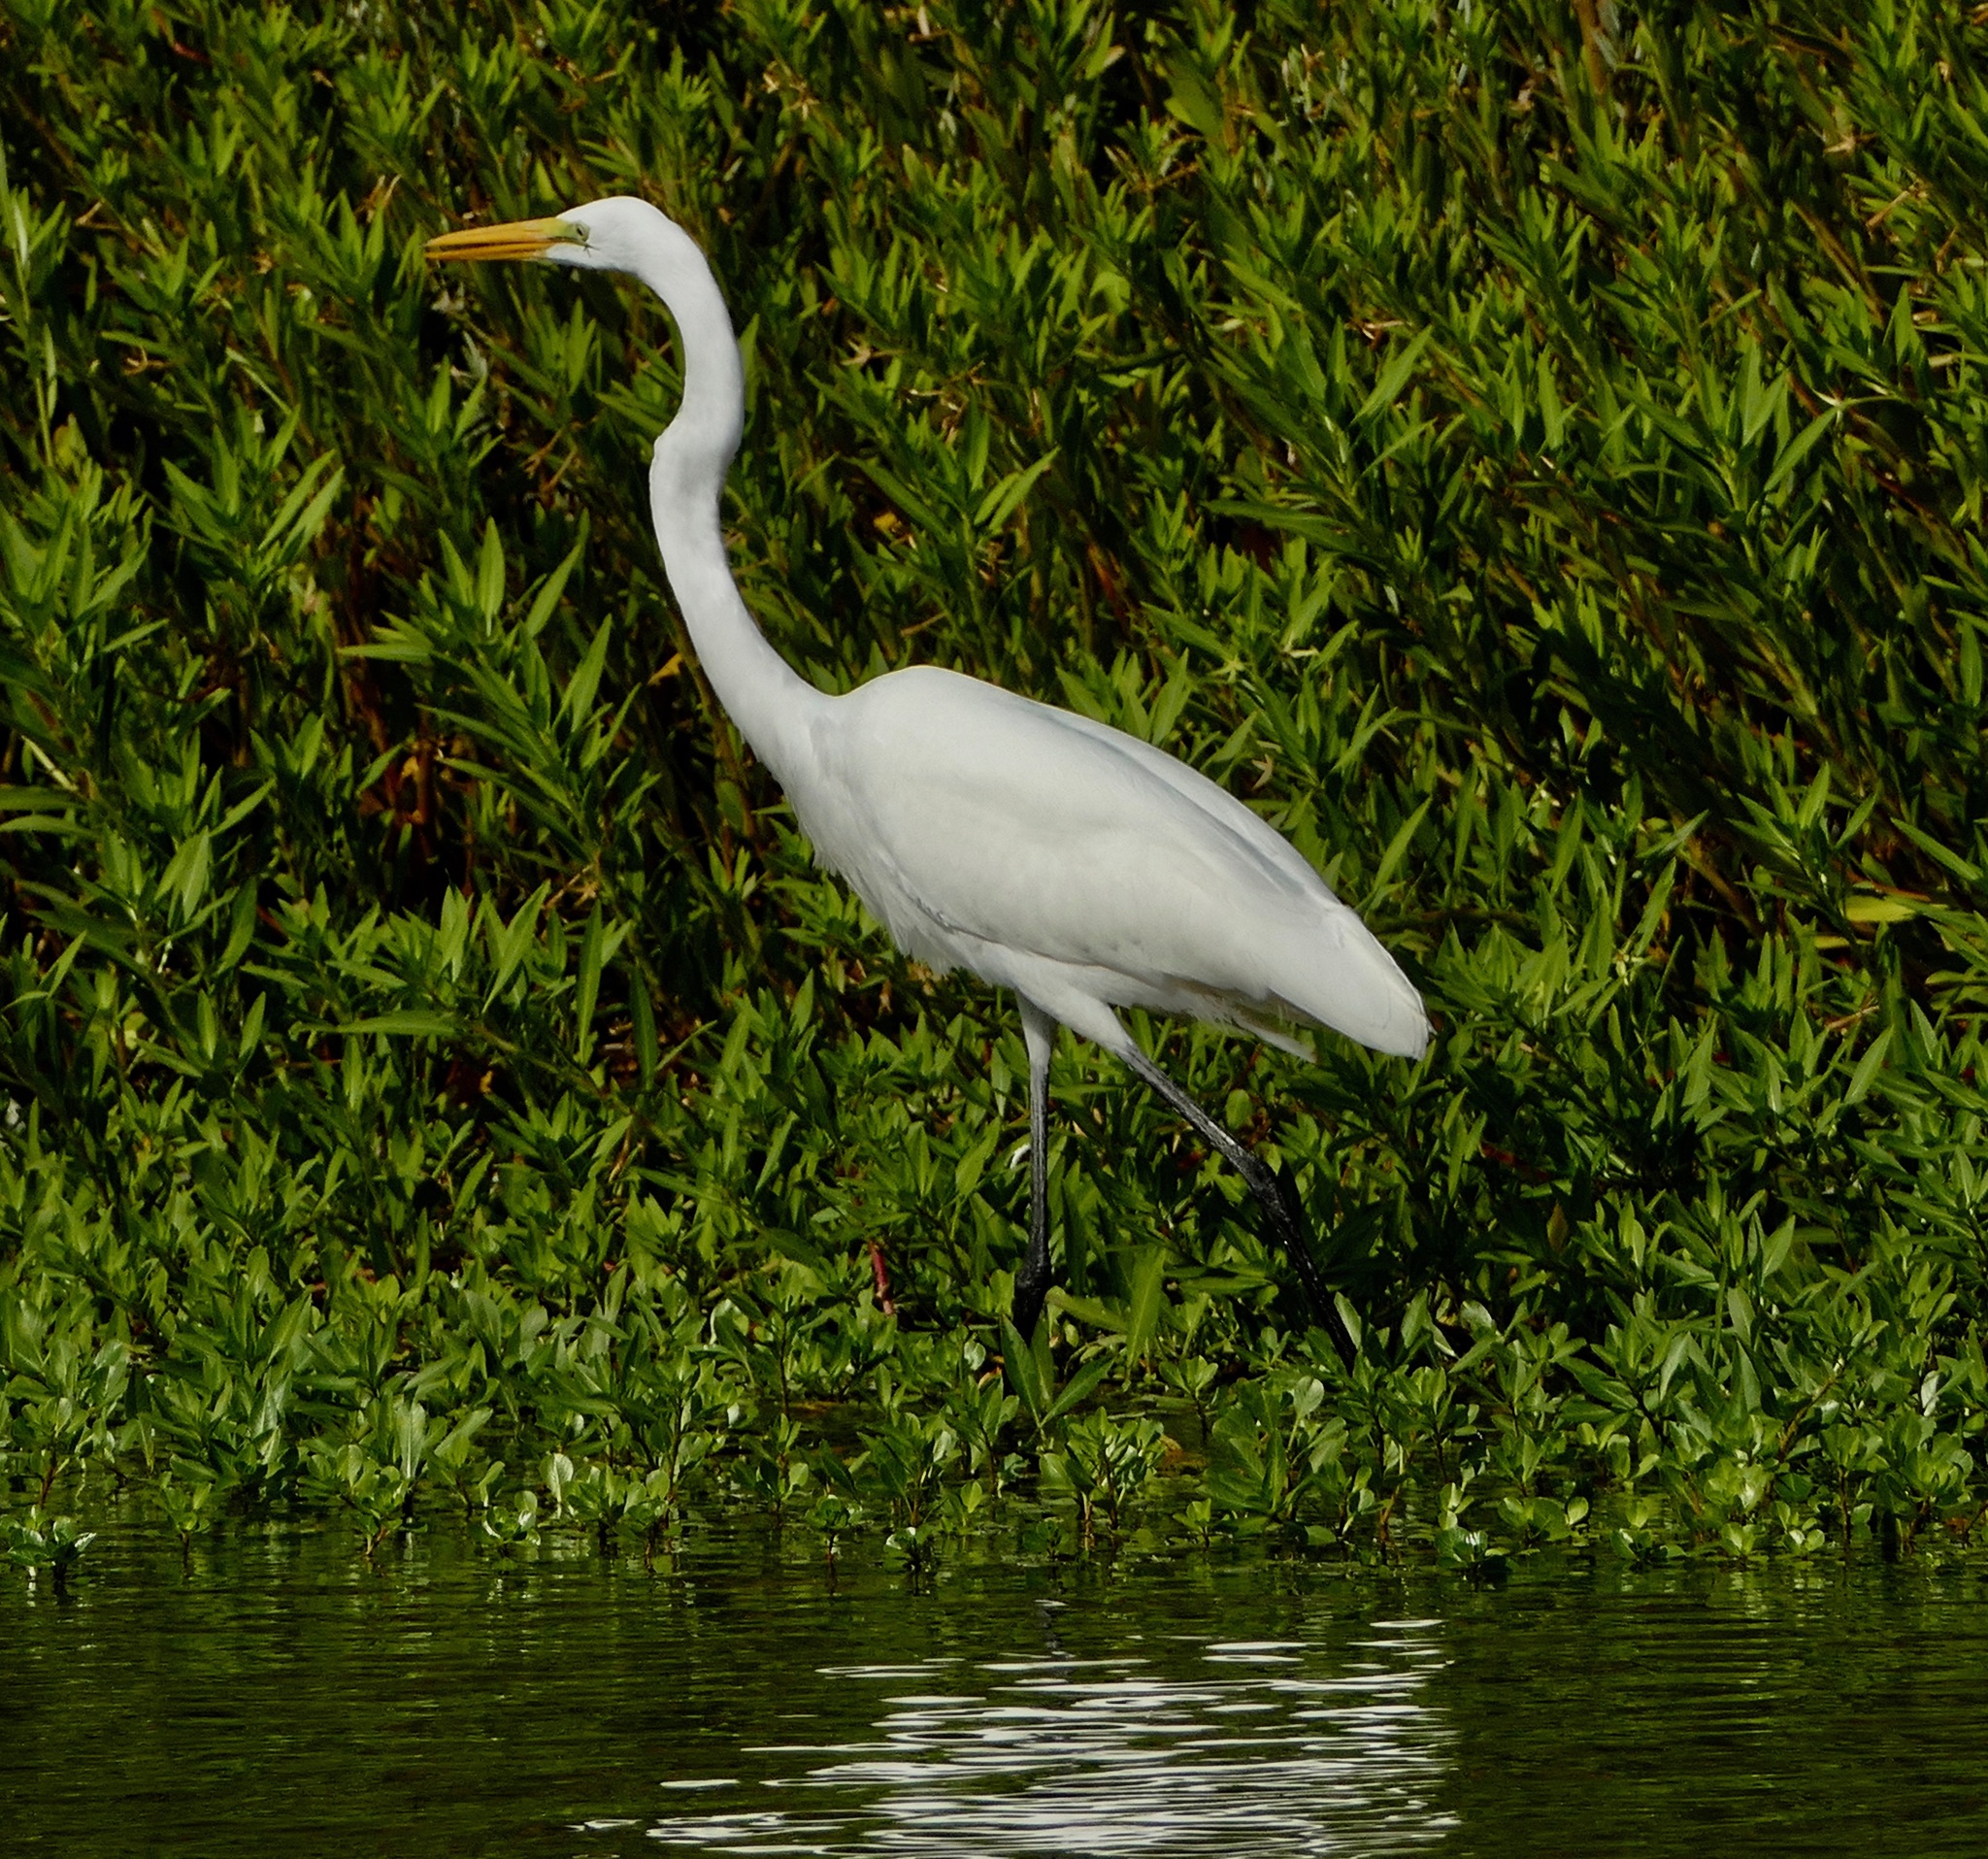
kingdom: Animalia
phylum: Chordata
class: Aves
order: Pelecaniformes
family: Ardeidae
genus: Ardea
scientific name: Ardea alba
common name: Great egret
